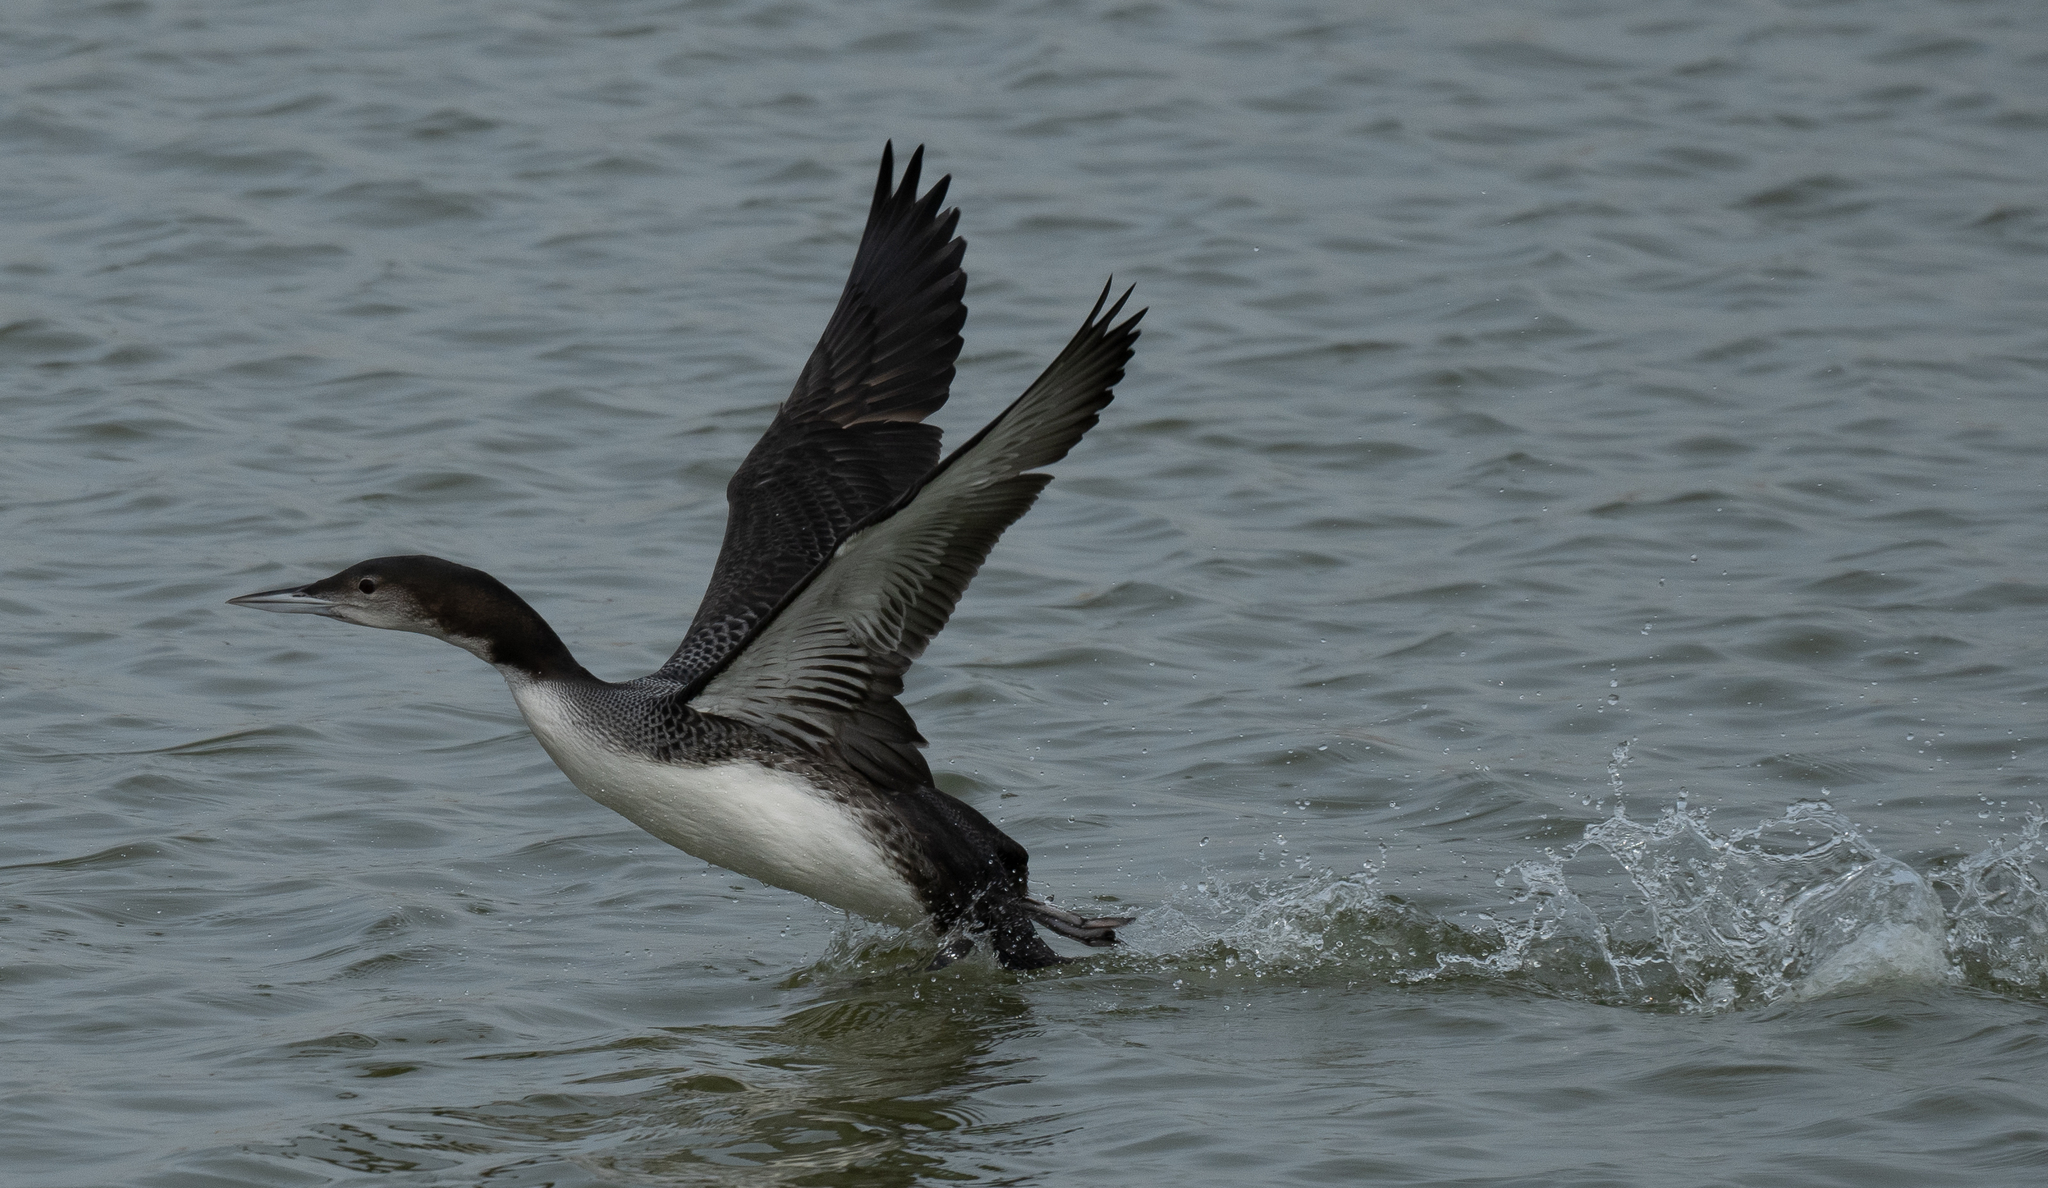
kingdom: Animalia
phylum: Chordata
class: Aves
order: Gaviiformes
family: Gaviidae
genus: Gavia
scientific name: Gavia immer
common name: Common loon
